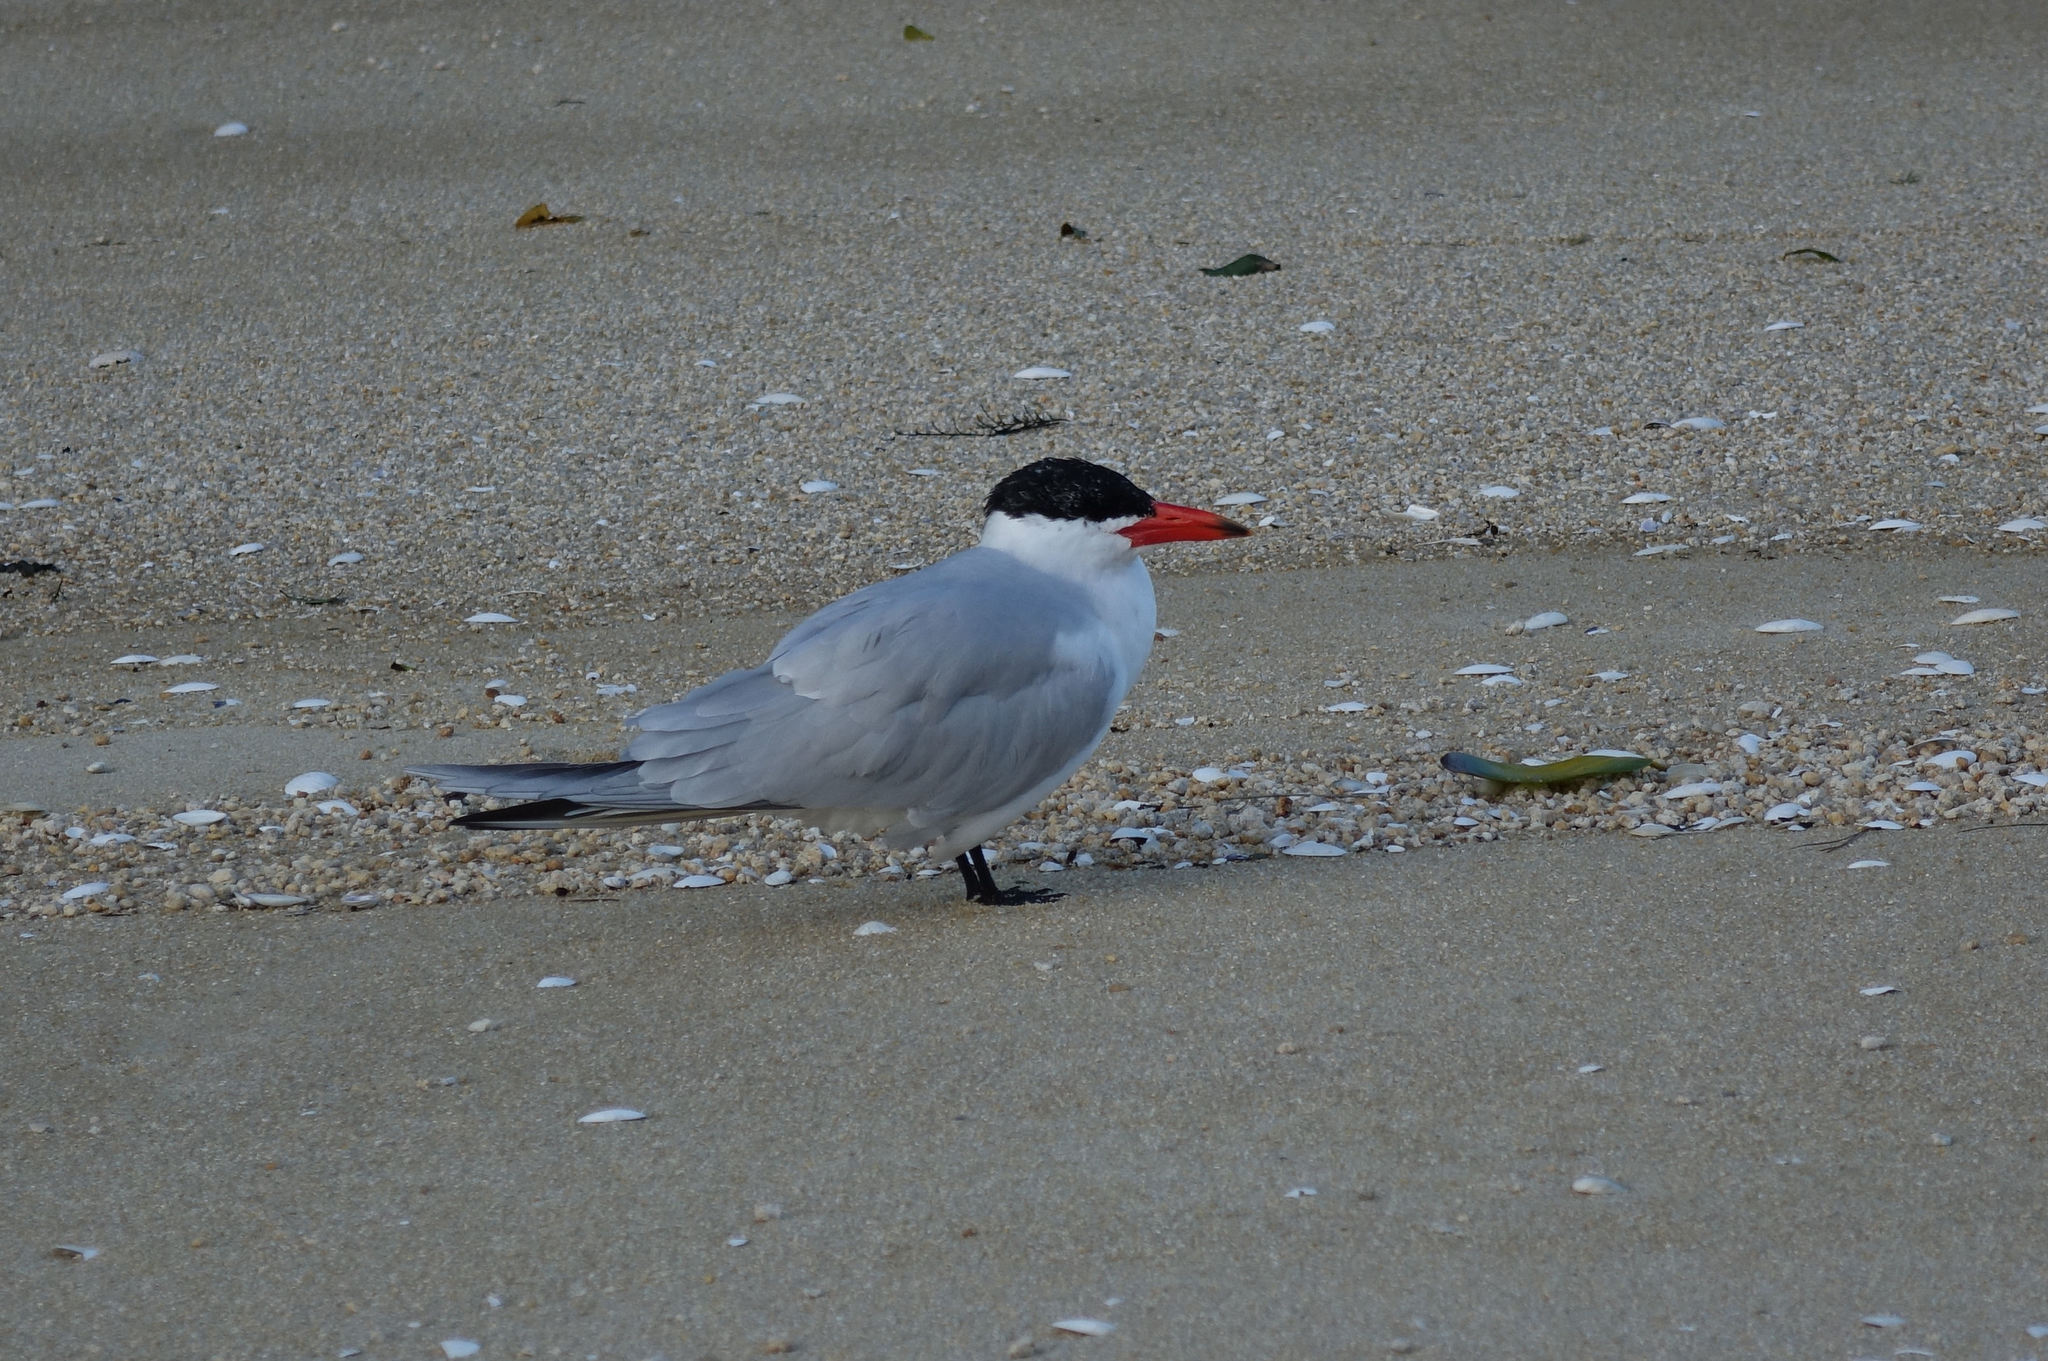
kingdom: Animalia
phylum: Chordata
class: Aves
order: Charadriiformes
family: Laridae
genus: Hydroprogne
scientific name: Hydroprogne caspia
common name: Caspian tern
